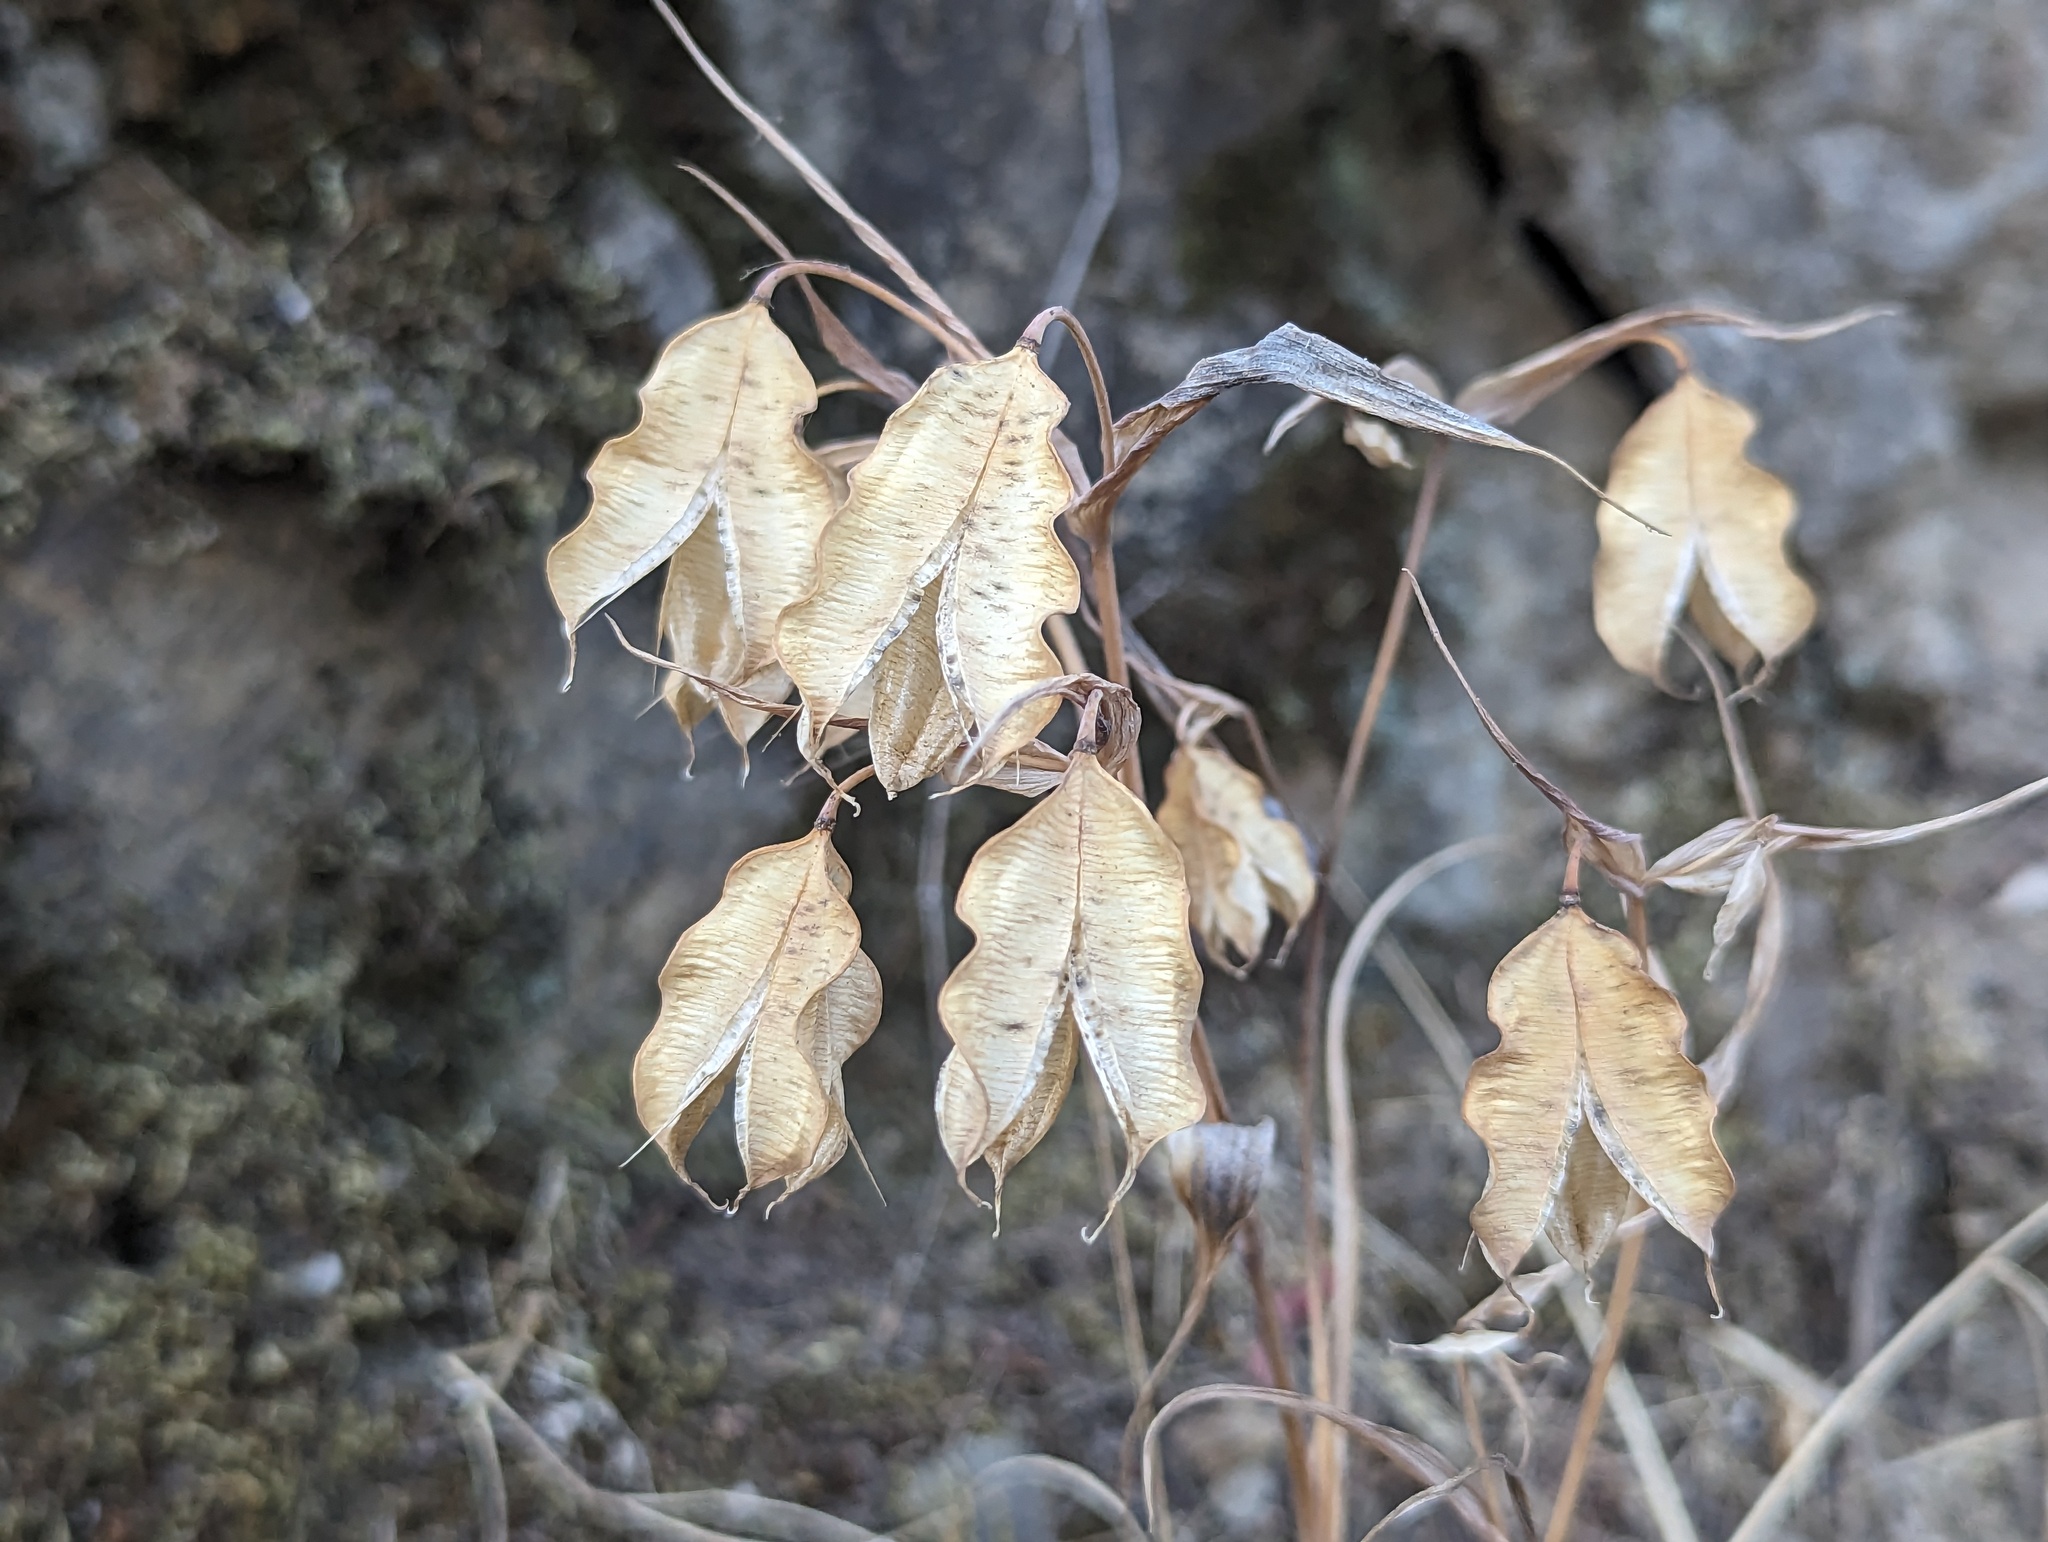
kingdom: Plantae
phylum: Tracheophyta
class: Liliopsida
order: Liliales
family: Liliaceae
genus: Calochortus
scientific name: Calochortus albus
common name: Fairy-lantern
